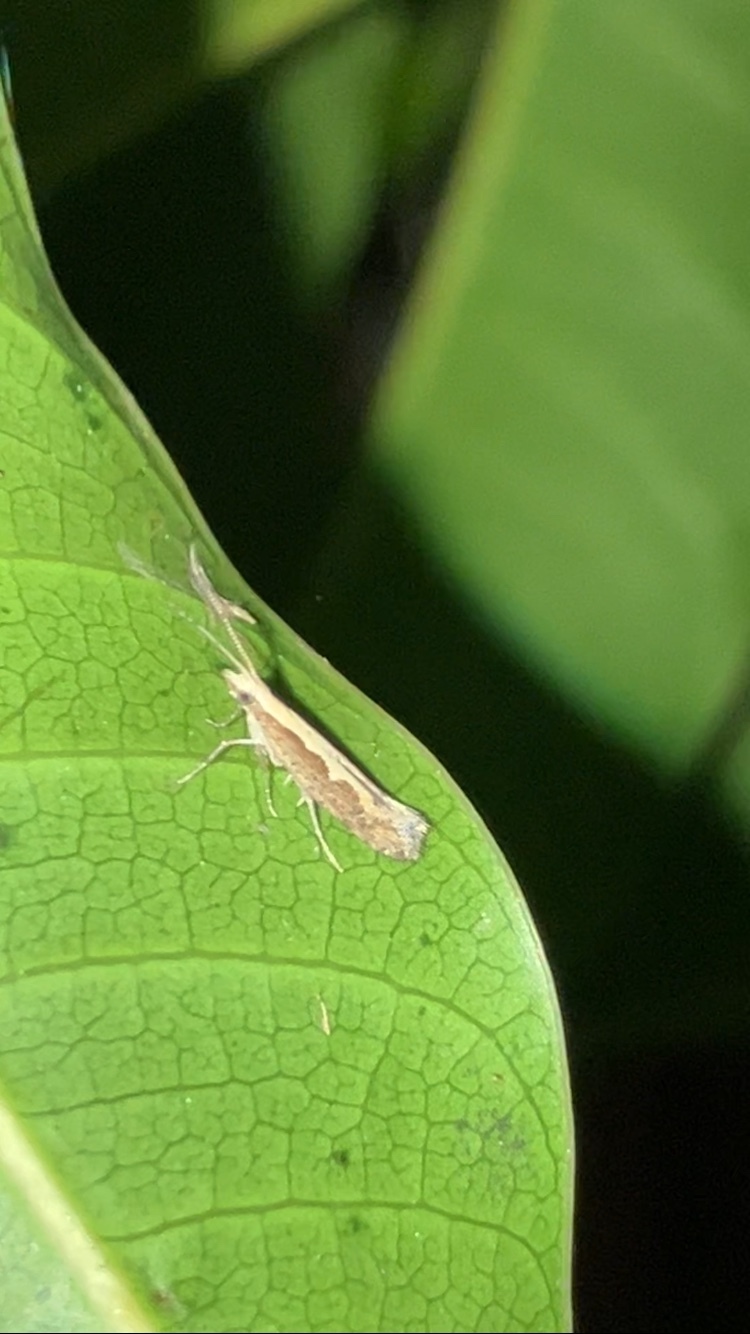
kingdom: Animalia
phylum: Arthropoda
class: Insecta
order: Lepidoptera
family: Plutellidae
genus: Plutella
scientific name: Plutella xylostella
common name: Diamond-back moth
